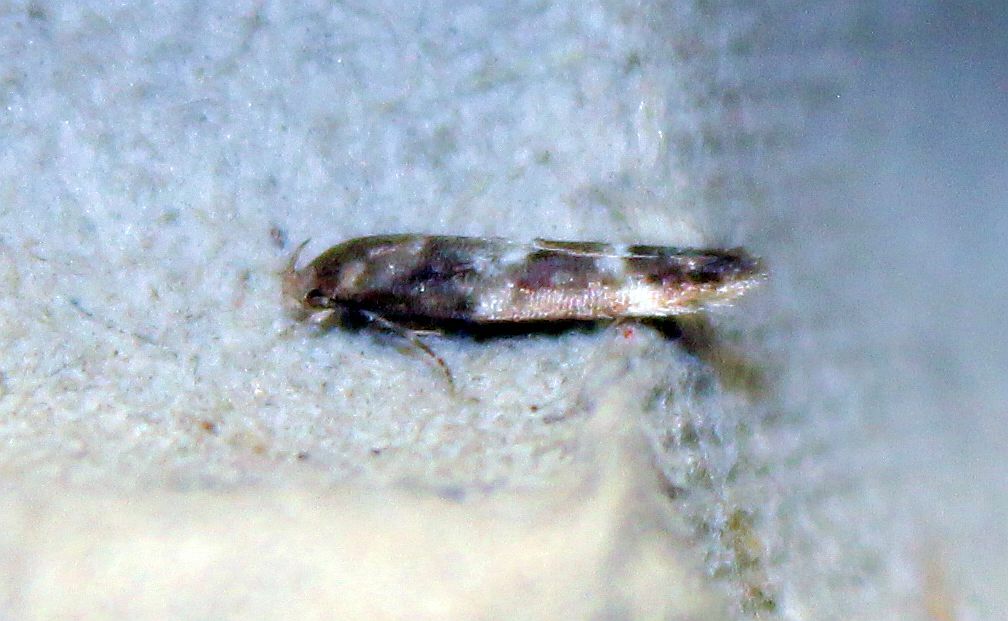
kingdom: Animalia
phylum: Arthropoda
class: Insecta
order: Lepidoptera
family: Momphidae
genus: Mompha
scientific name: Mompha subbistrigella
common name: Garden cosmet
